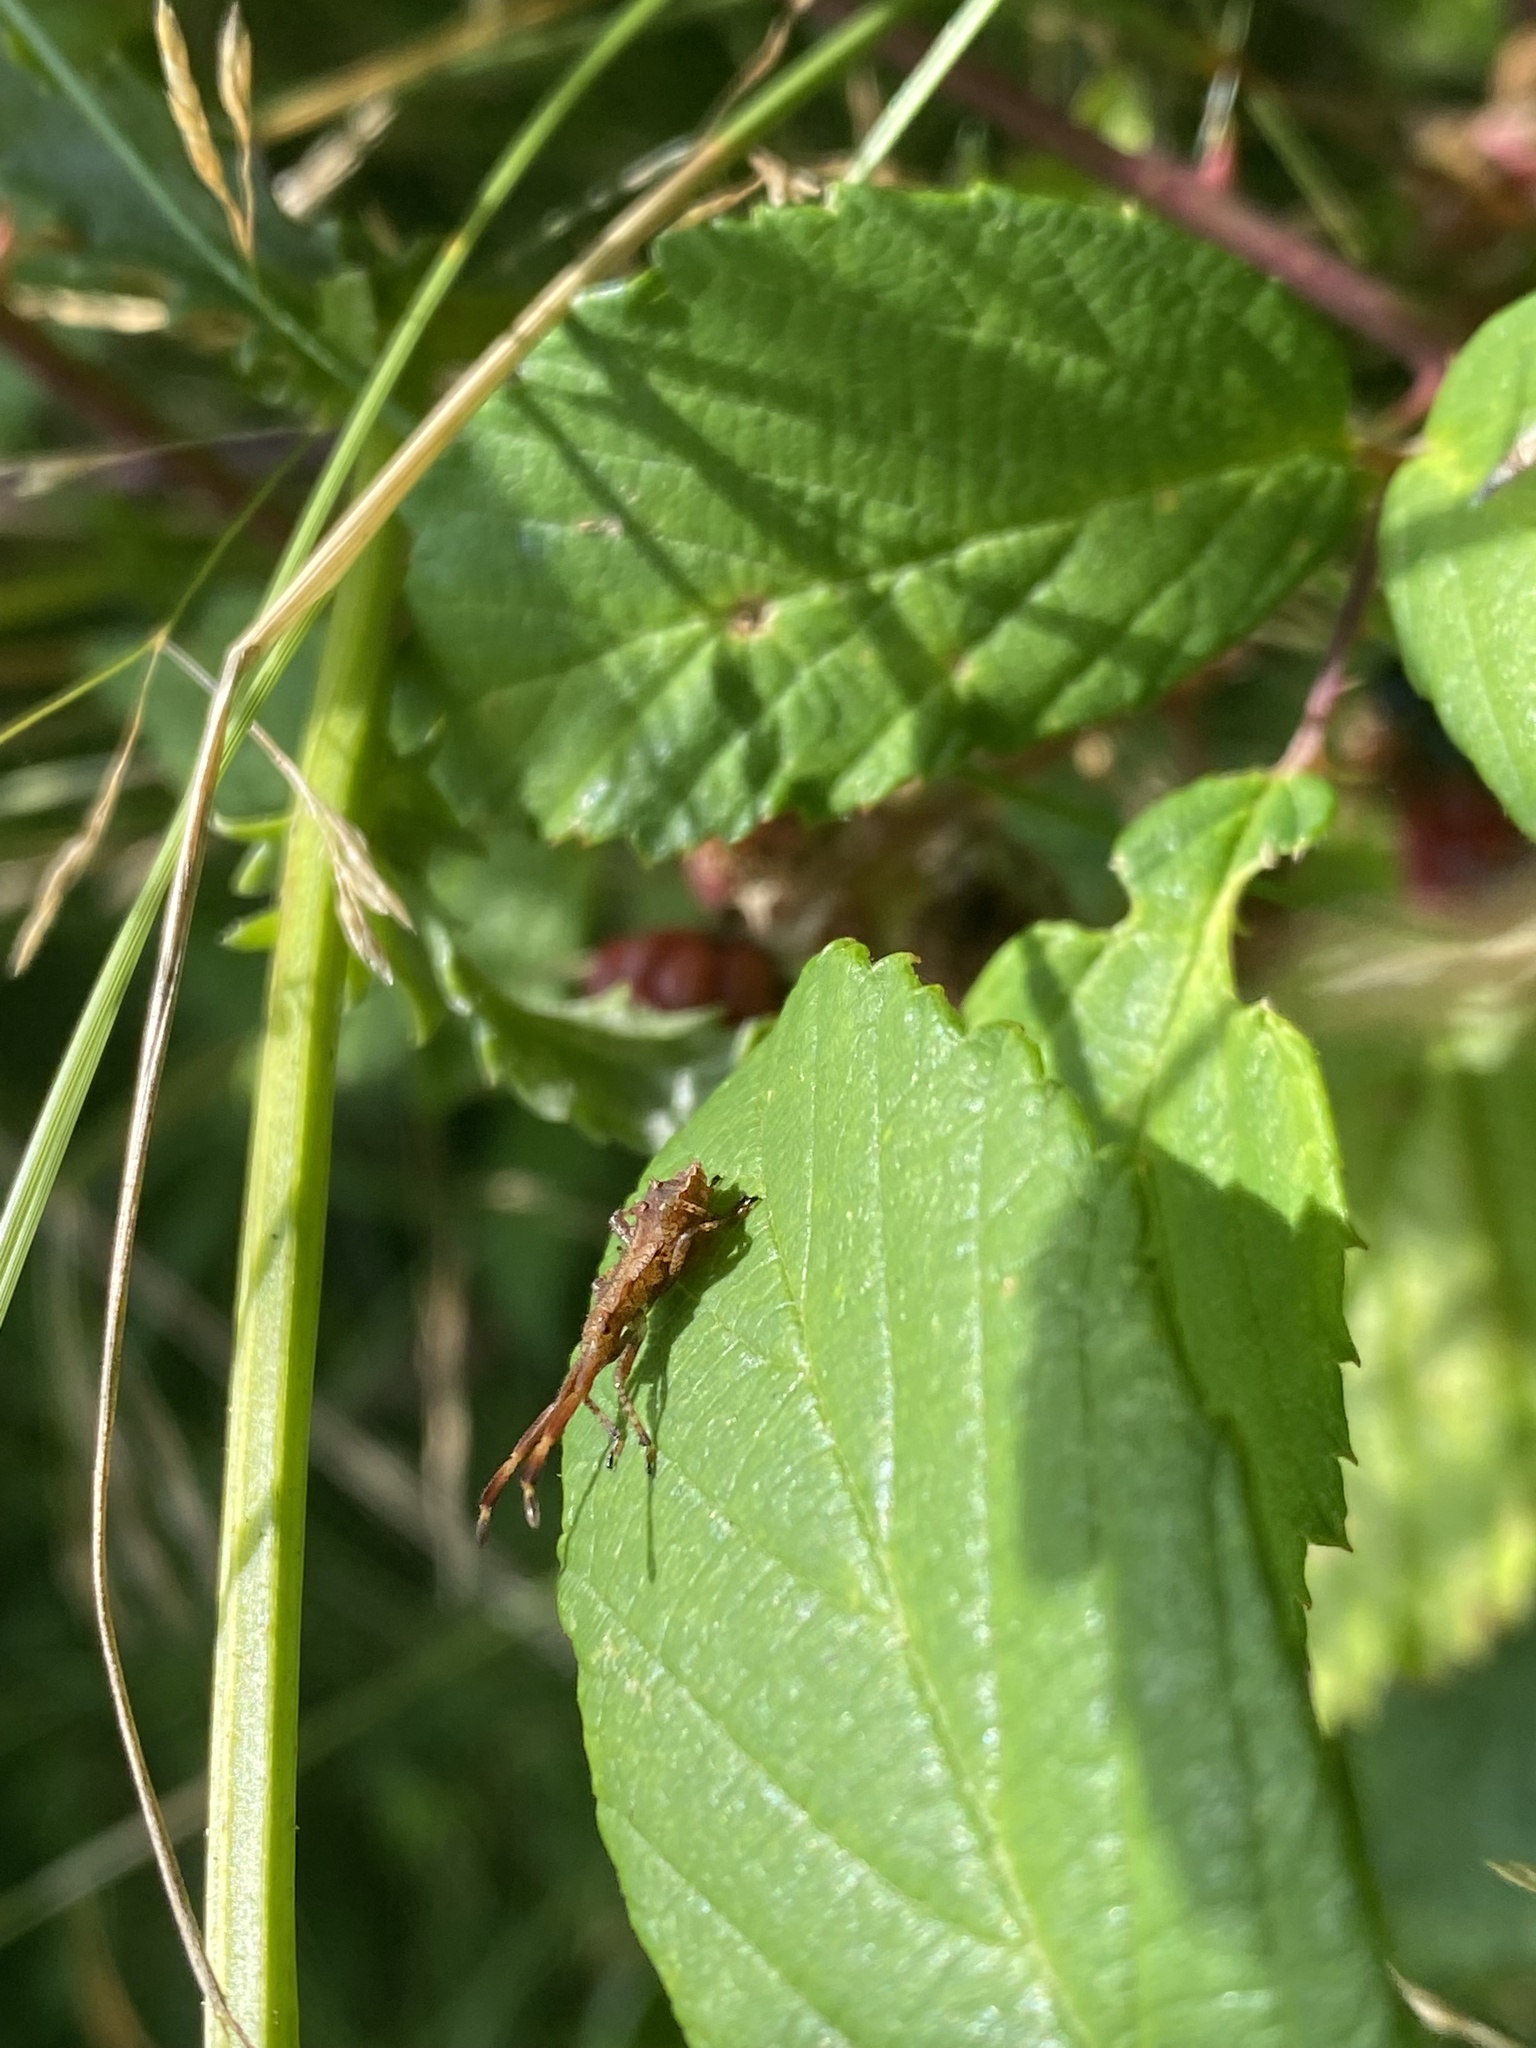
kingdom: Animalia
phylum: Arthropoda
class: Insecta
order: Hemiptera
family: Coreidae
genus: Coreus
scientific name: Coreus marginatus
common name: Dock bug
